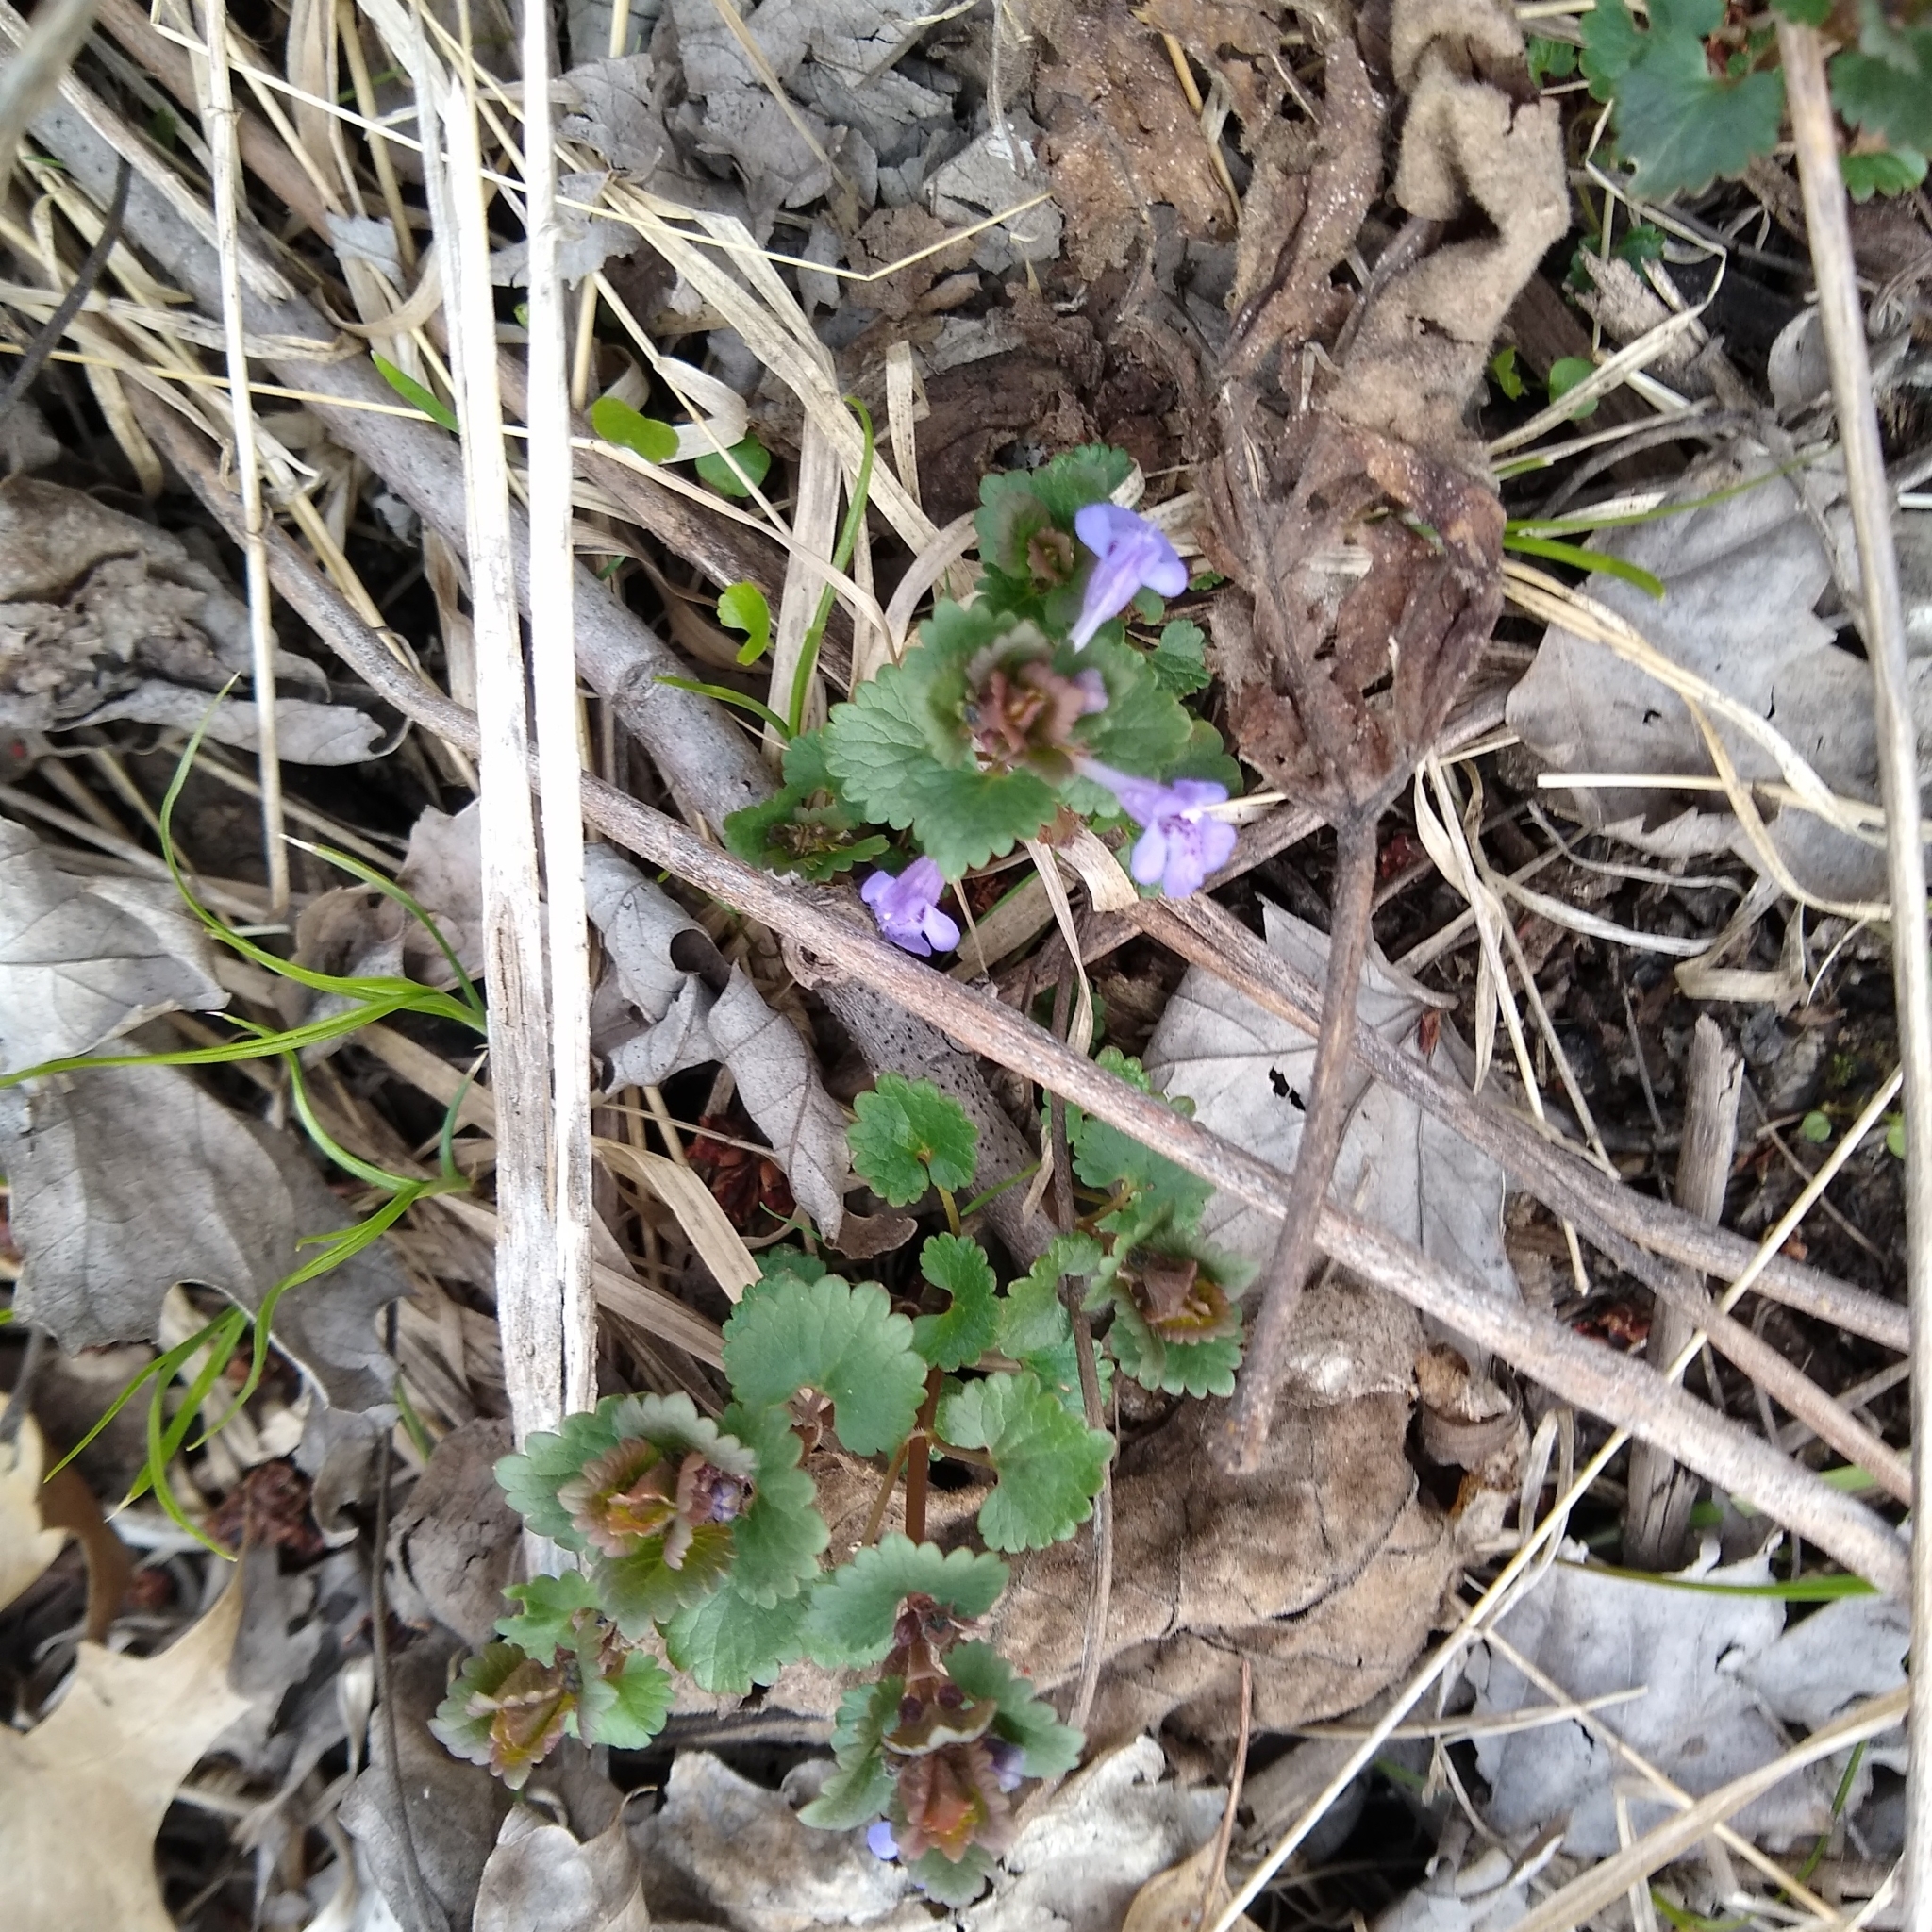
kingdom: Plantae
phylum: Tracheophyta
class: Magnoliopsida
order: Lamiales
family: Lamiaceae
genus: Glechoma
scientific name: Glechoma hederacea
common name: Ground ivy
